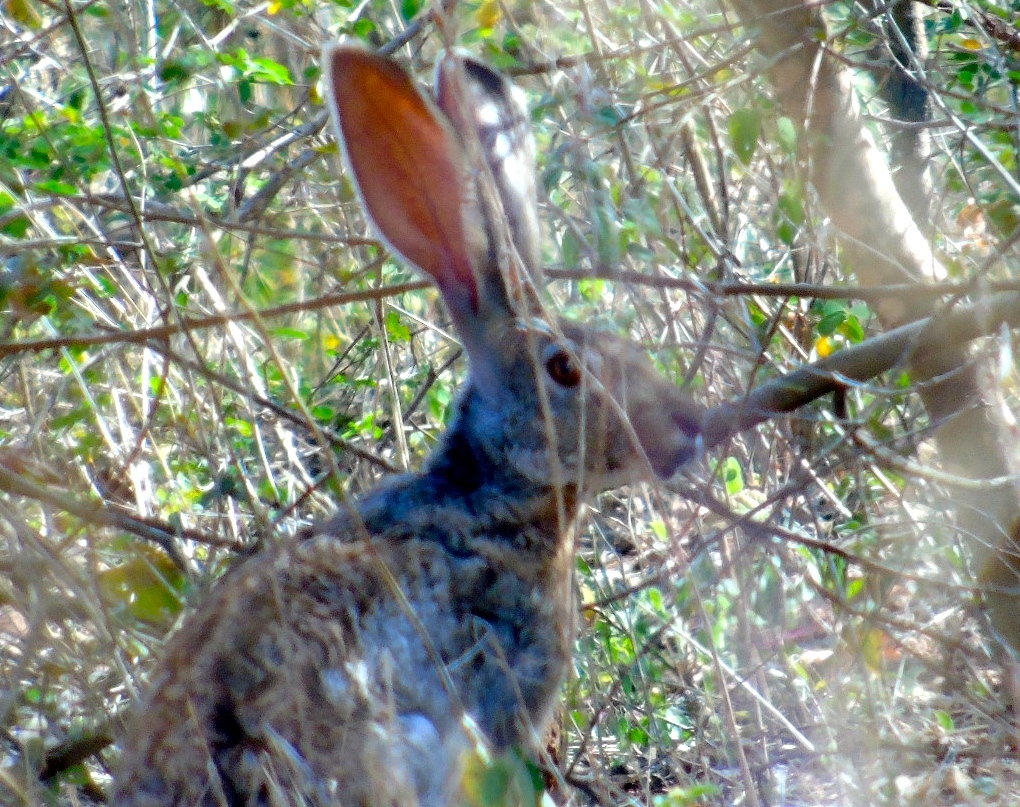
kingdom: Animalia
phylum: Chordata
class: Mammalia
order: Lagomorpha
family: Leporidae
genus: Lepus
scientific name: Lepus alleni
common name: Antelope jackrabbit
